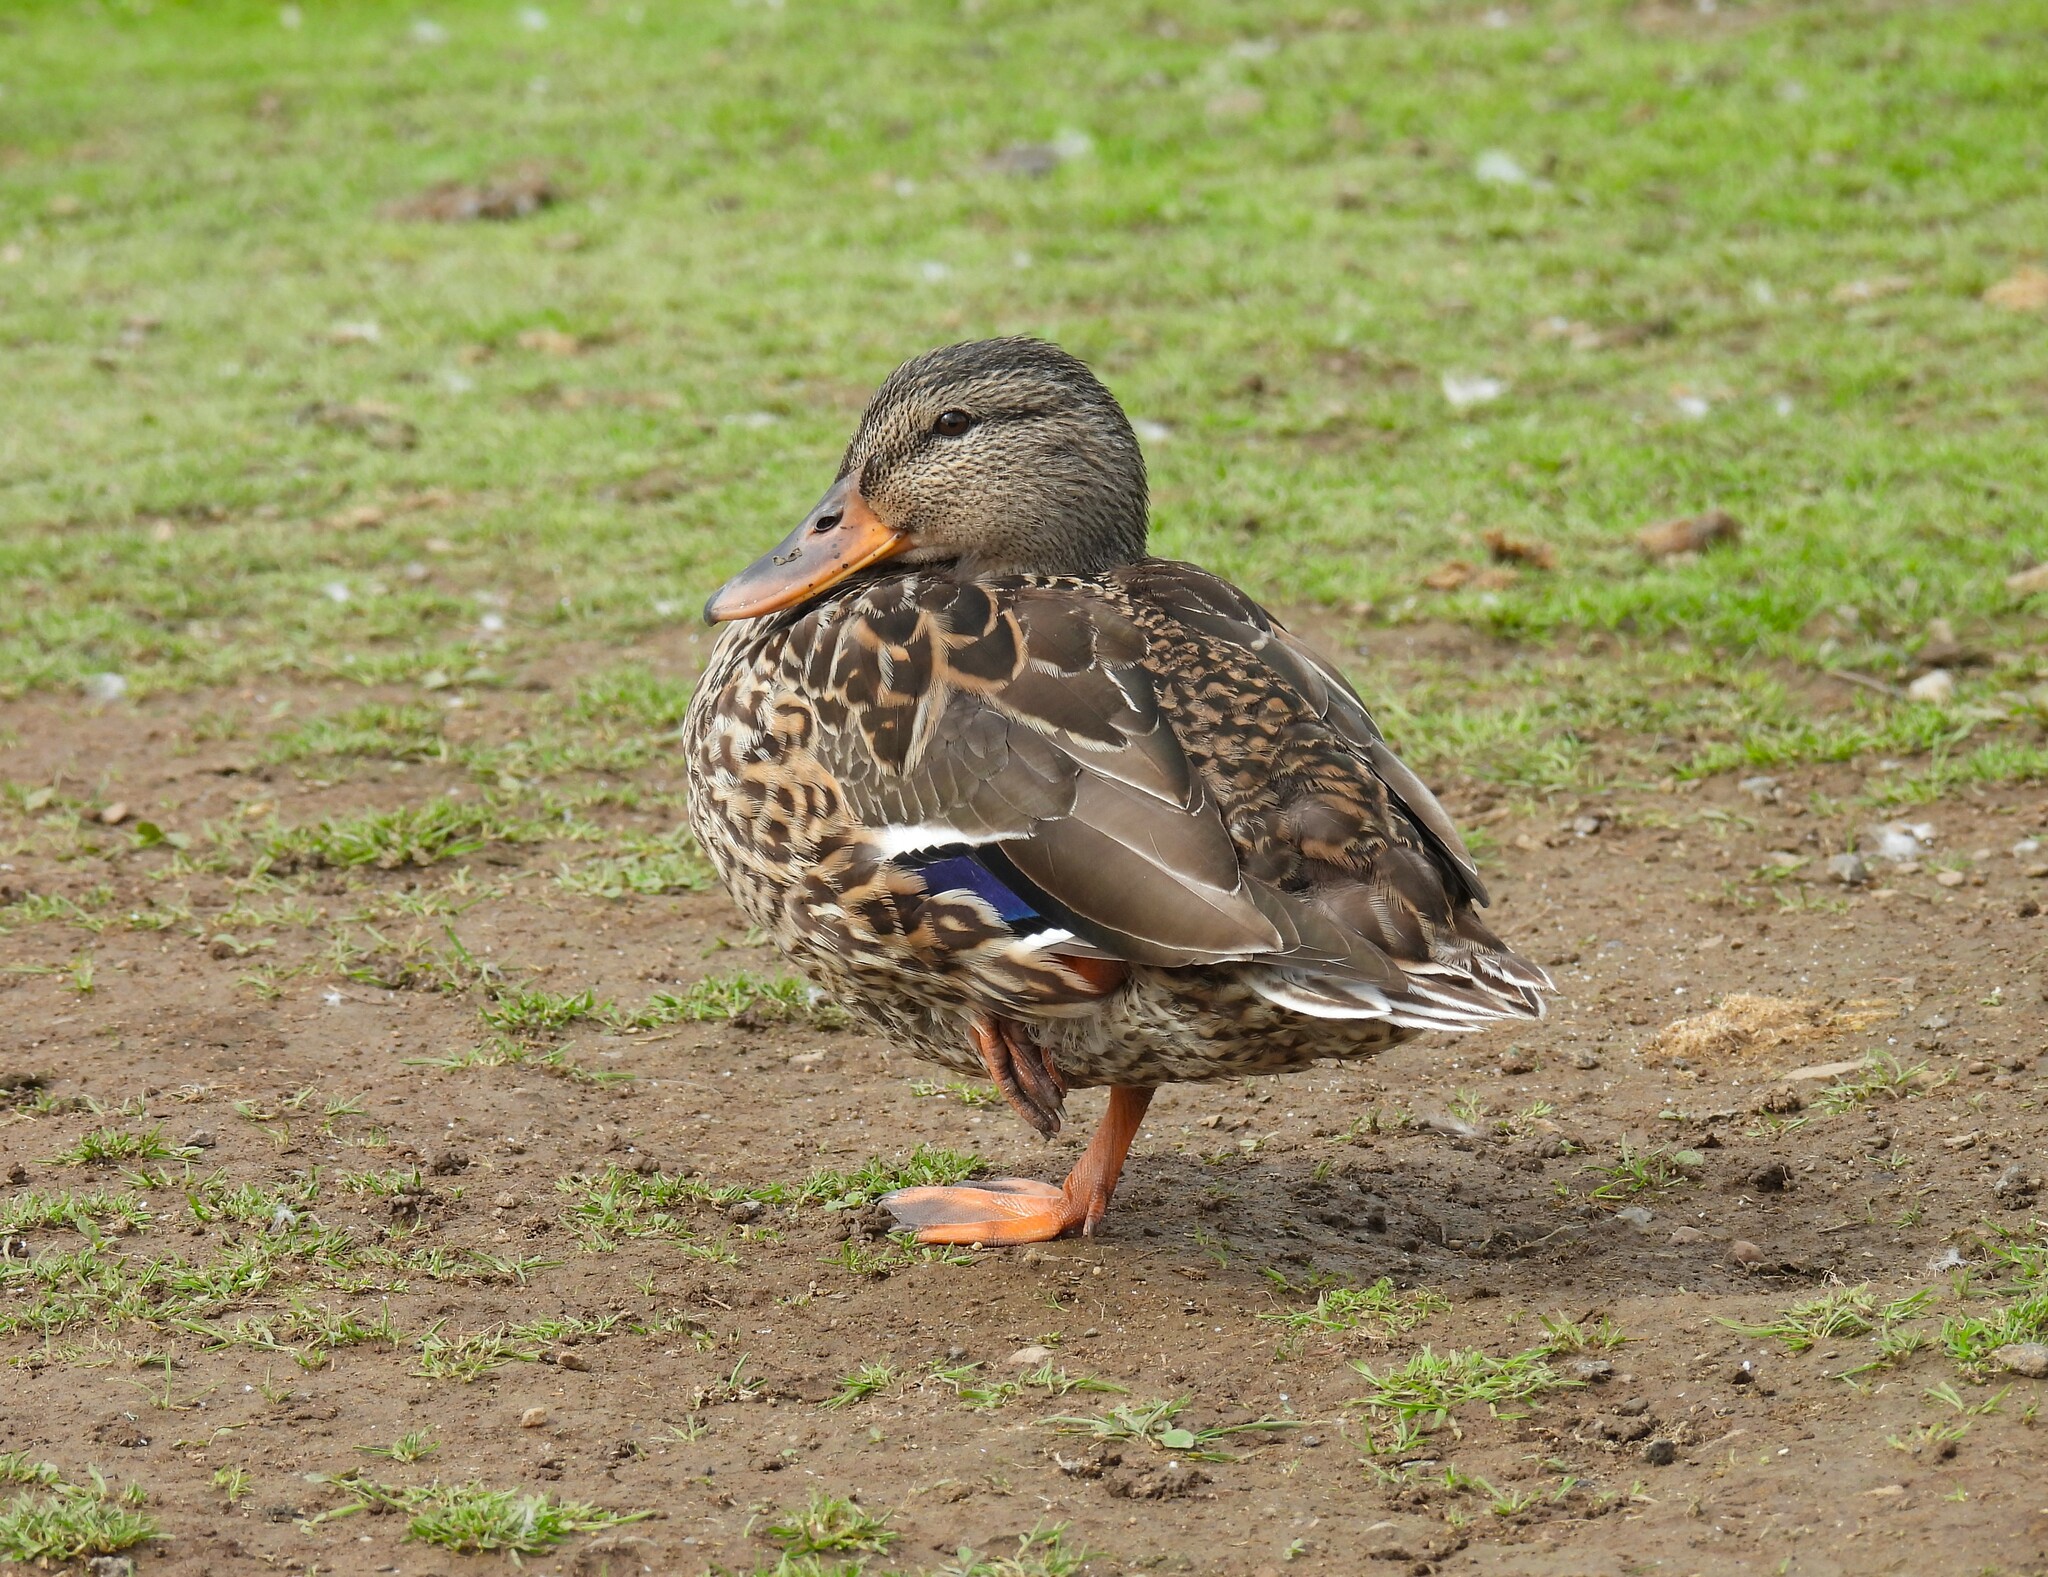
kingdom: Animalia
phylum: Chordata
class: Aves
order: Anseriformes
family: Anatidae
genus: Anas
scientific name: Anas platyrhynchos
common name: Mallard
